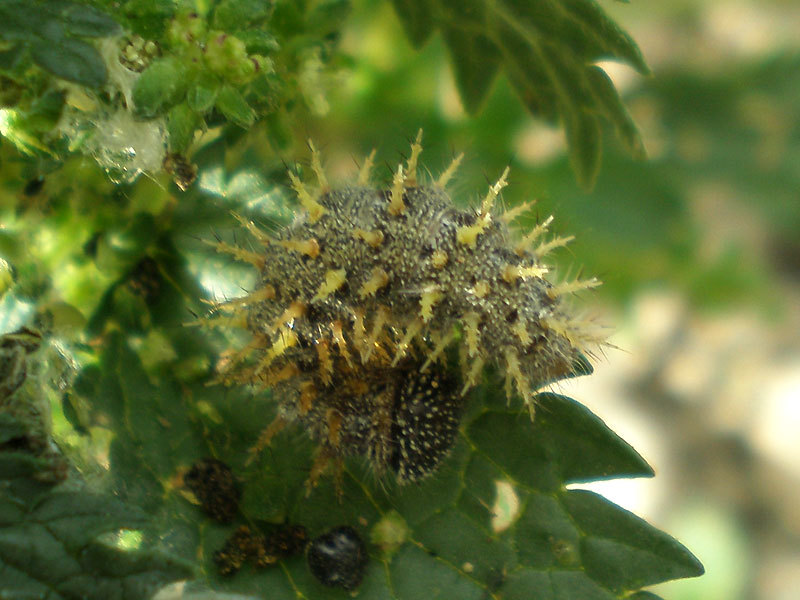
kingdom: Animalia
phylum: Arthropoda
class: Insecta
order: Lepidoptera
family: Nymphalidae
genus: Vanessa
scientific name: Vanessa atalanta
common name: Red admiral
